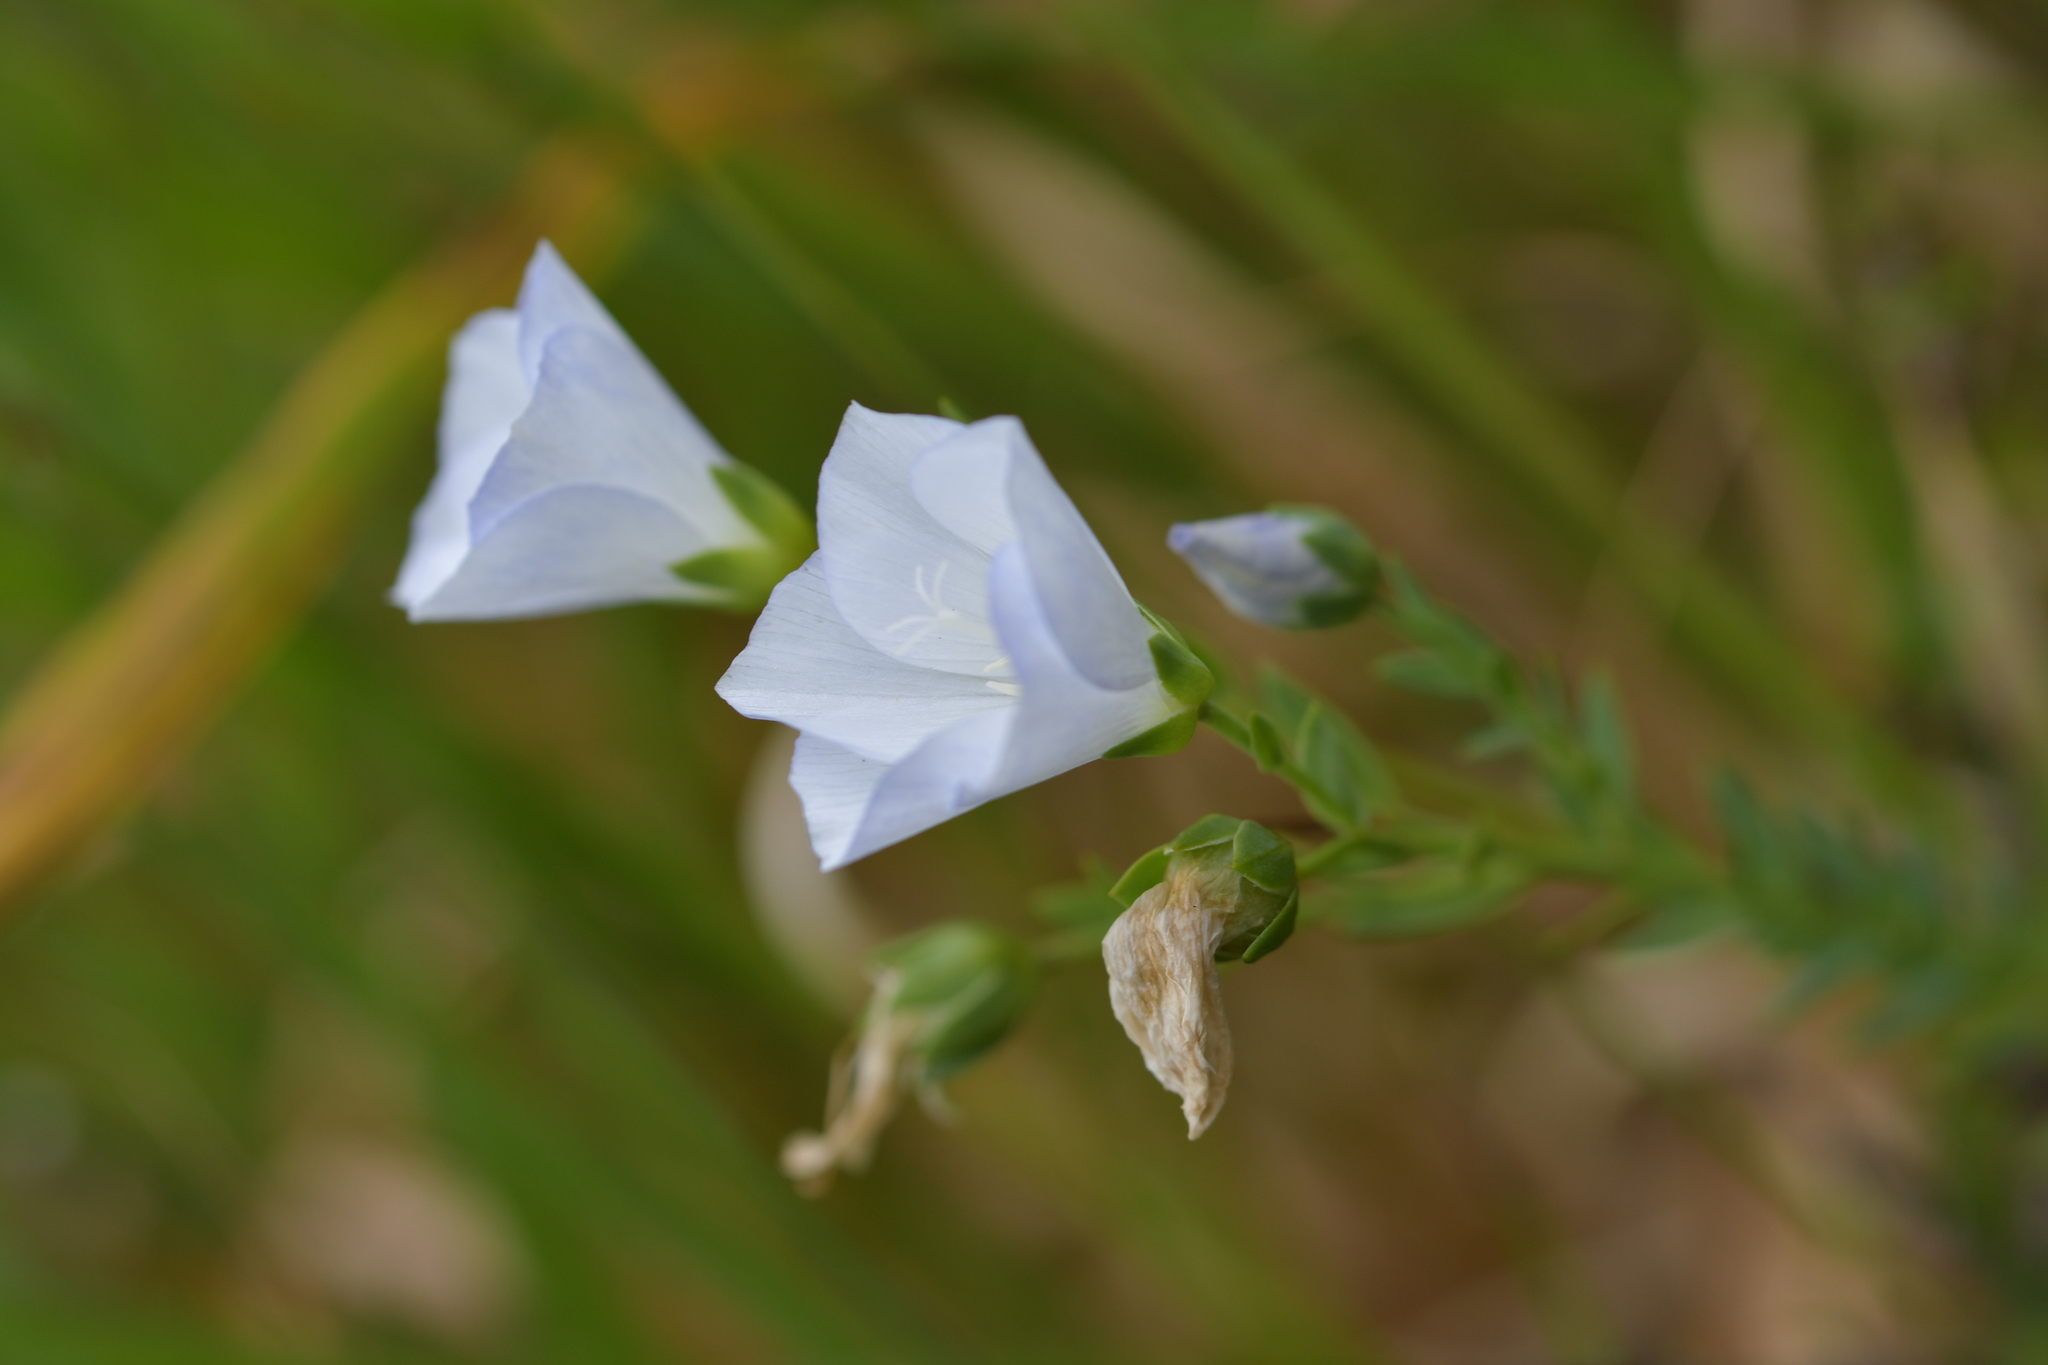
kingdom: Plantae
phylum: Tracheophyta
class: Magnoliopsida
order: Malpighiales
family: Linaceae
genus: Linum
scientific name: Linum monogynum
